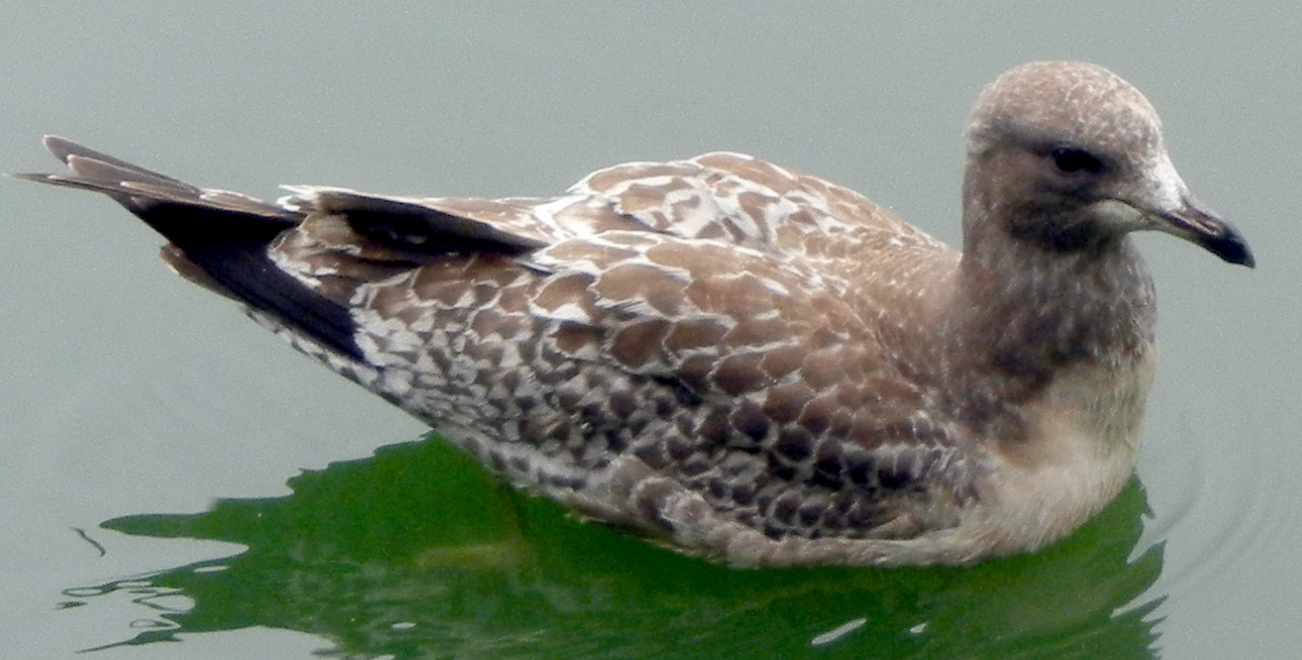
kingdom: Animalia
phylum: Chordata
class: Aves
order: Charadriiformes
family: Laridae
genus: Larus
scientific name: Larus californicus
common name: California gull
